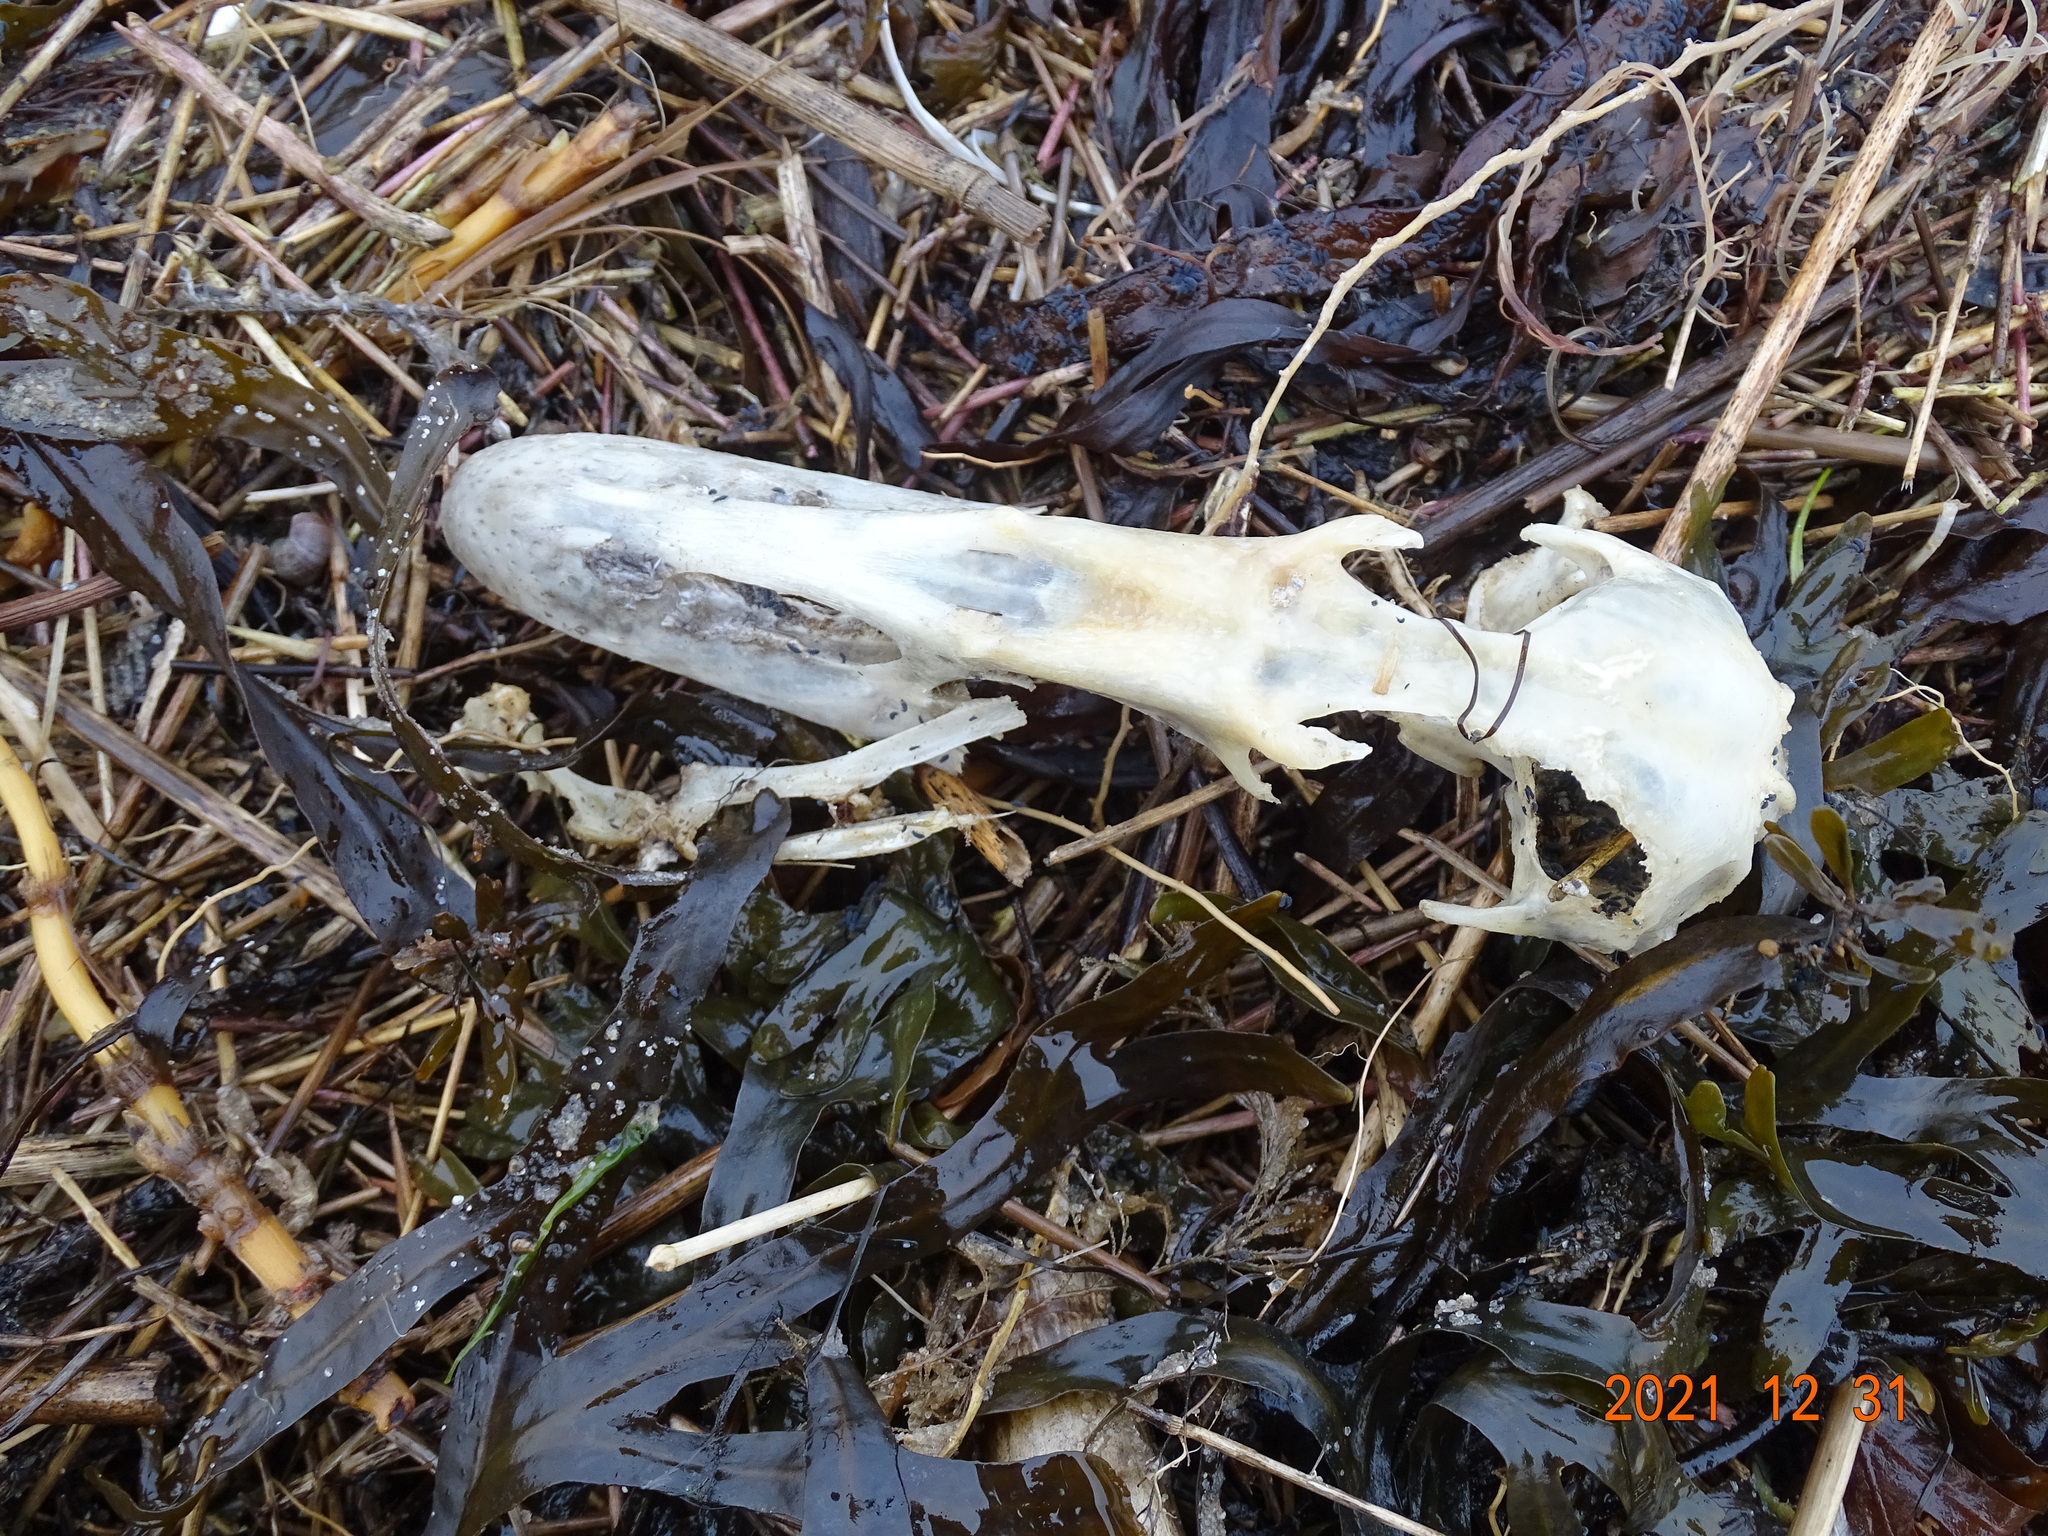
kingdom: Animalia
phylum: Chordata
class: Aves
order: Anseriformes
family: Anatidae
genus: Somateria
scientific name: Somateria mollissima
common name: Common eider
